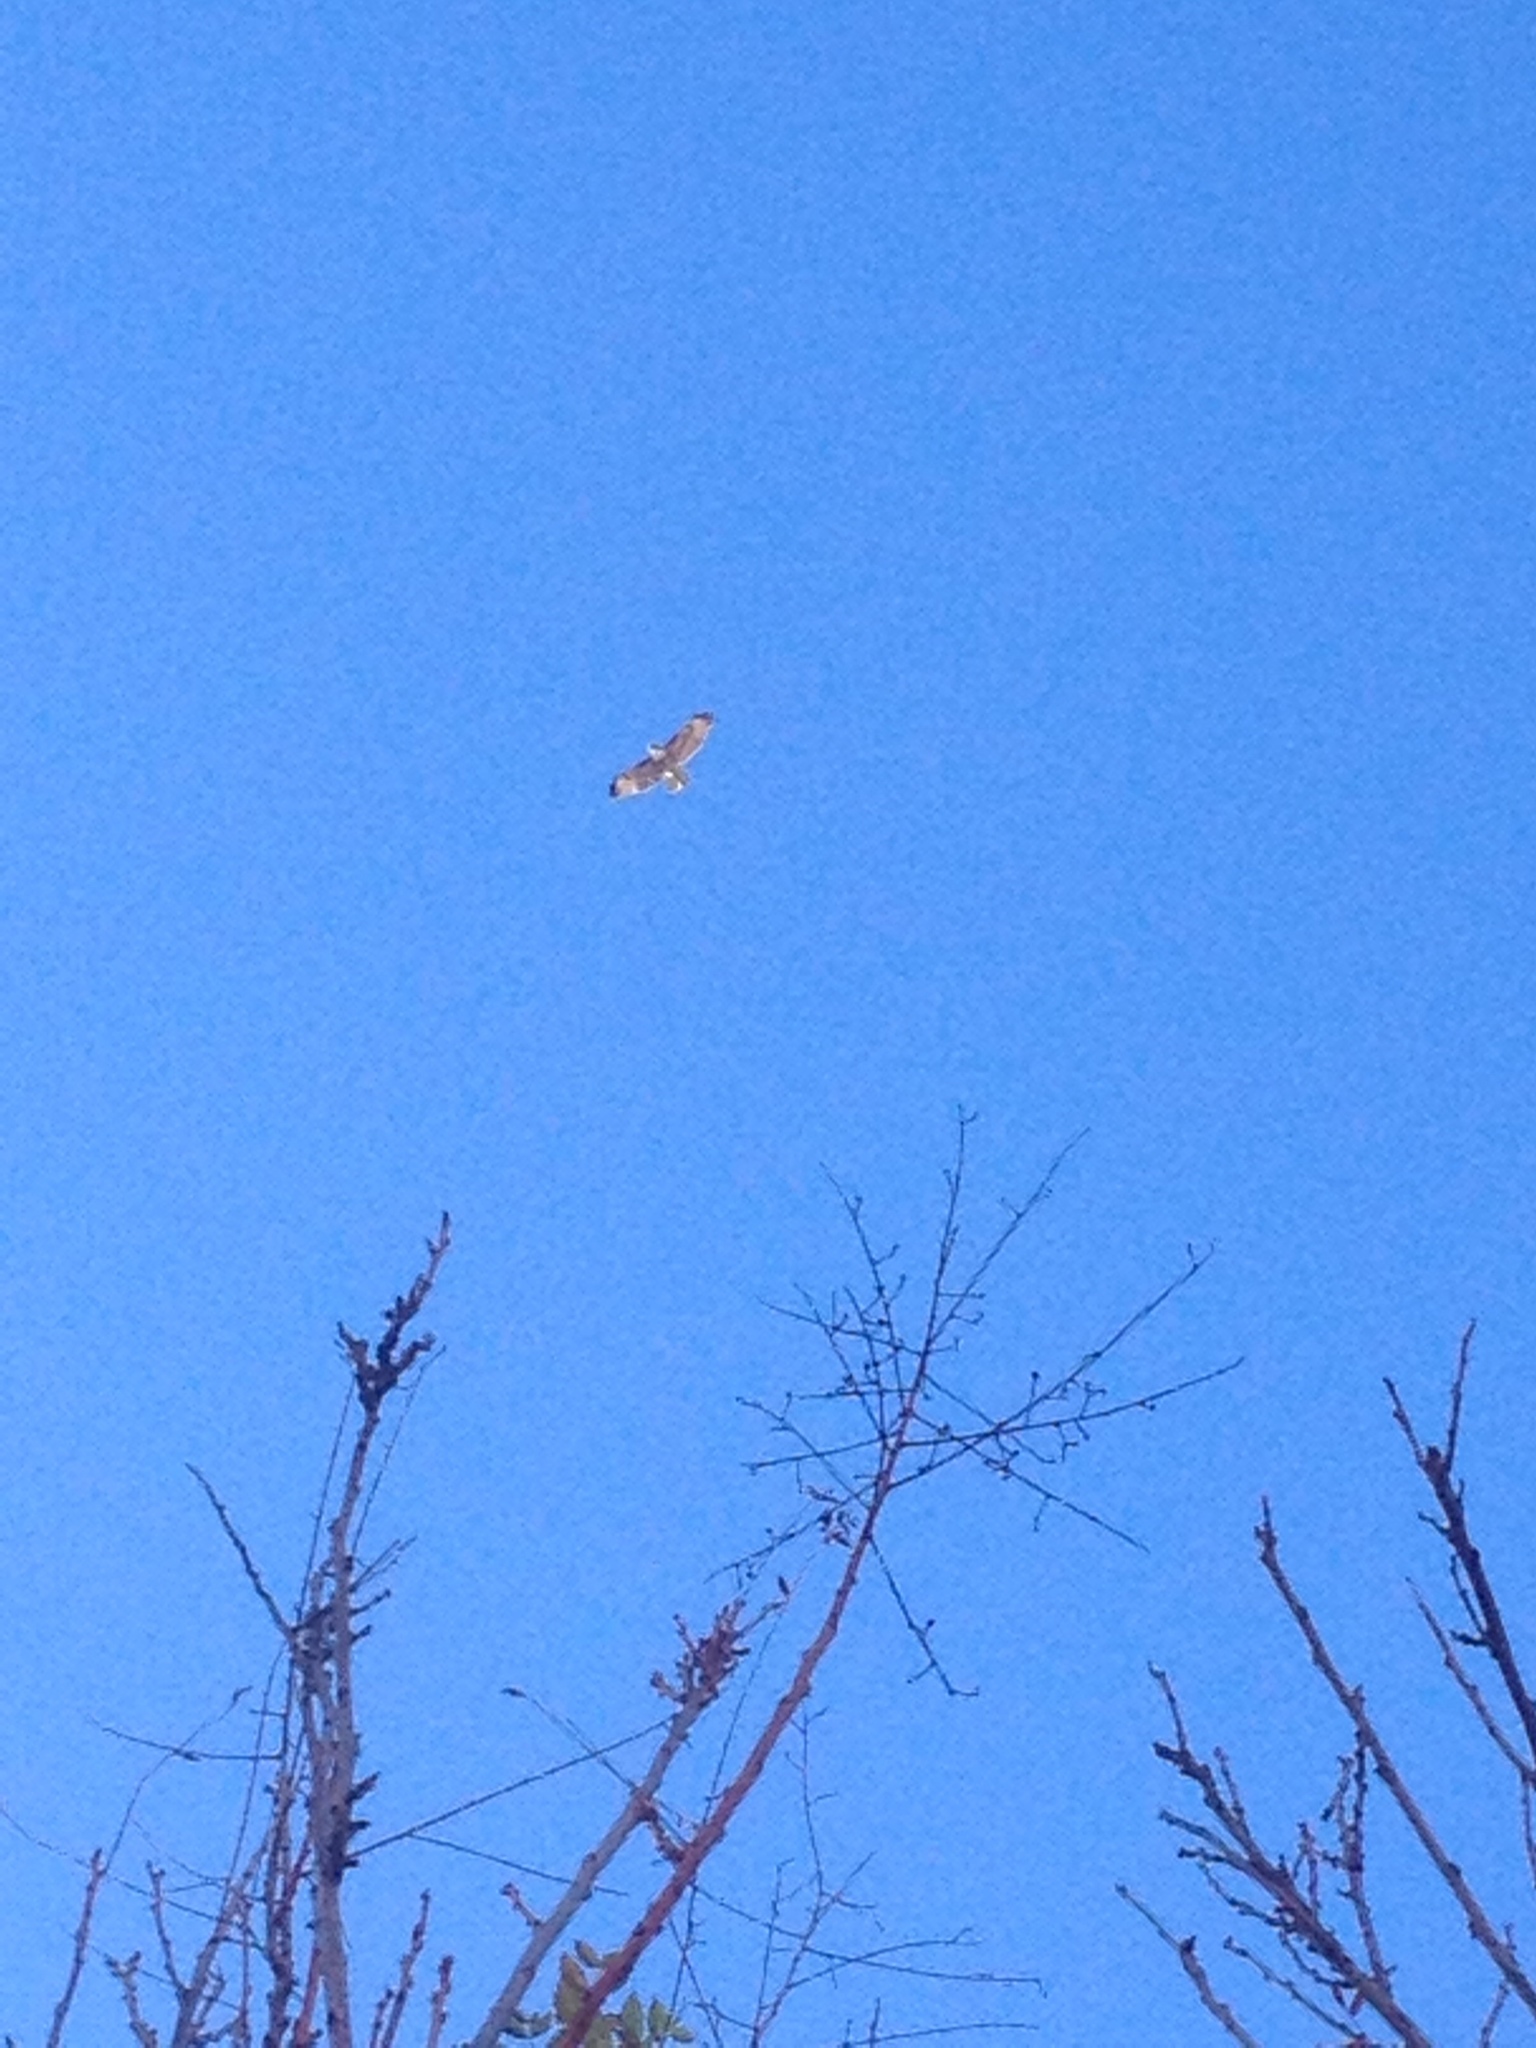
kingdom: Animalia
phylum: Chordata
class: Aves
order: Accipitriformes
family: Accipitridae
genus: Buteo
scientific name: Buteo jamaicensis
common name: Red-tailed hawk
